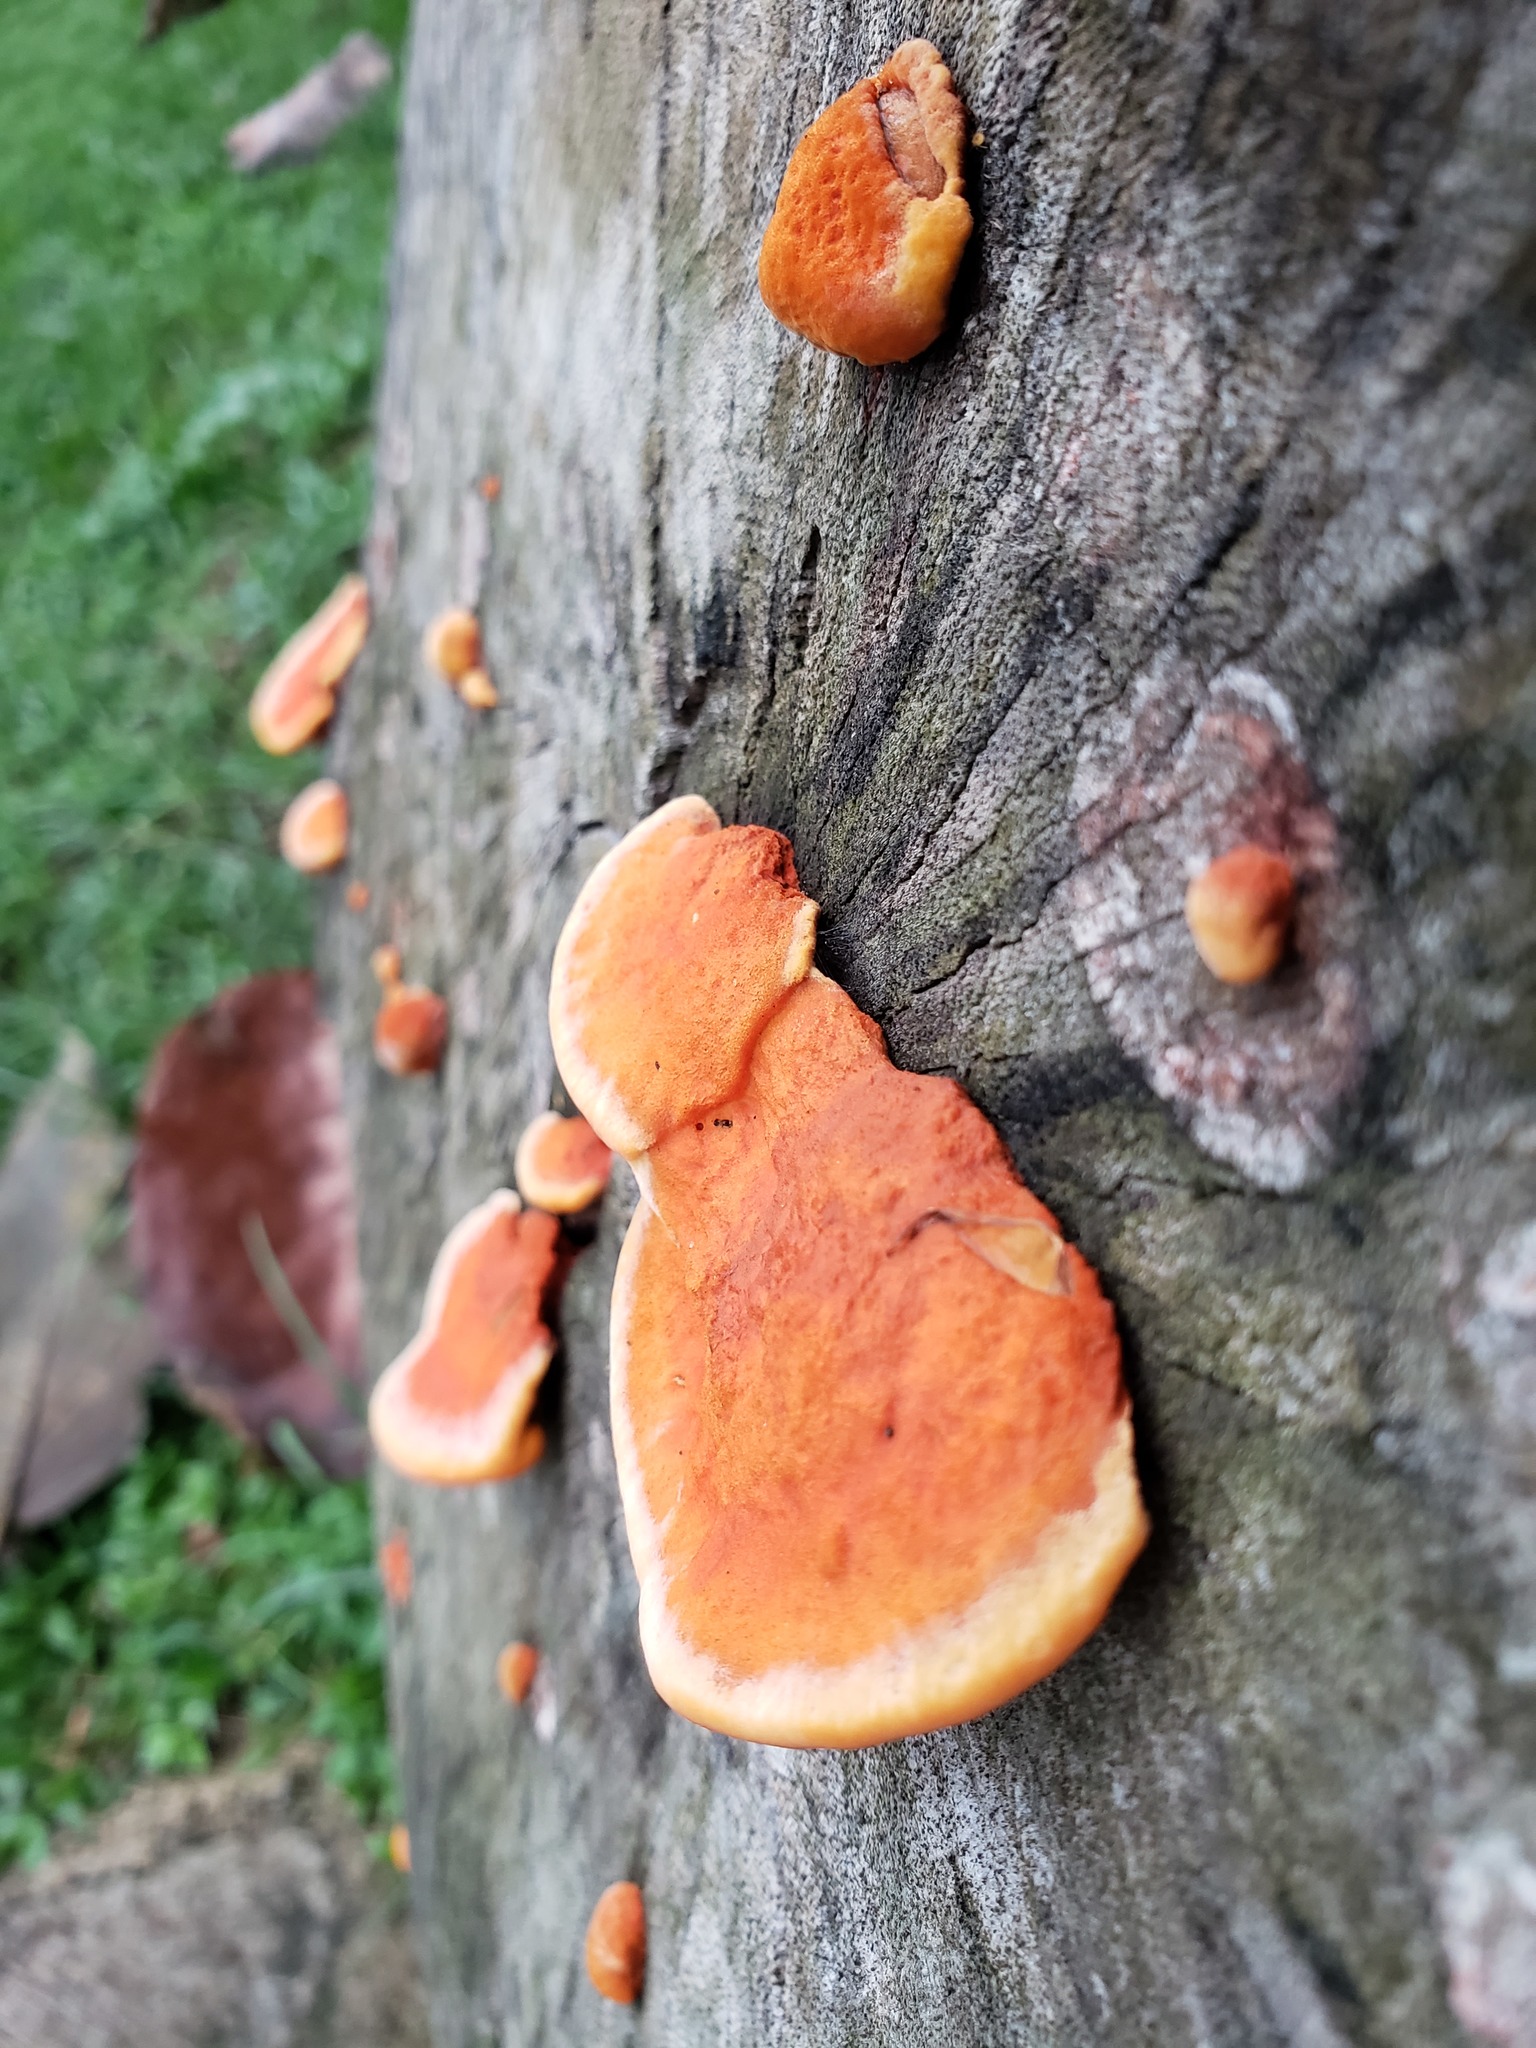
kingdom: Fungi
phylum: Basidiomycota
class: Agaricomycetes
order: Polyporales
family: Polyporaceae
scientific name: Polyporaceae
